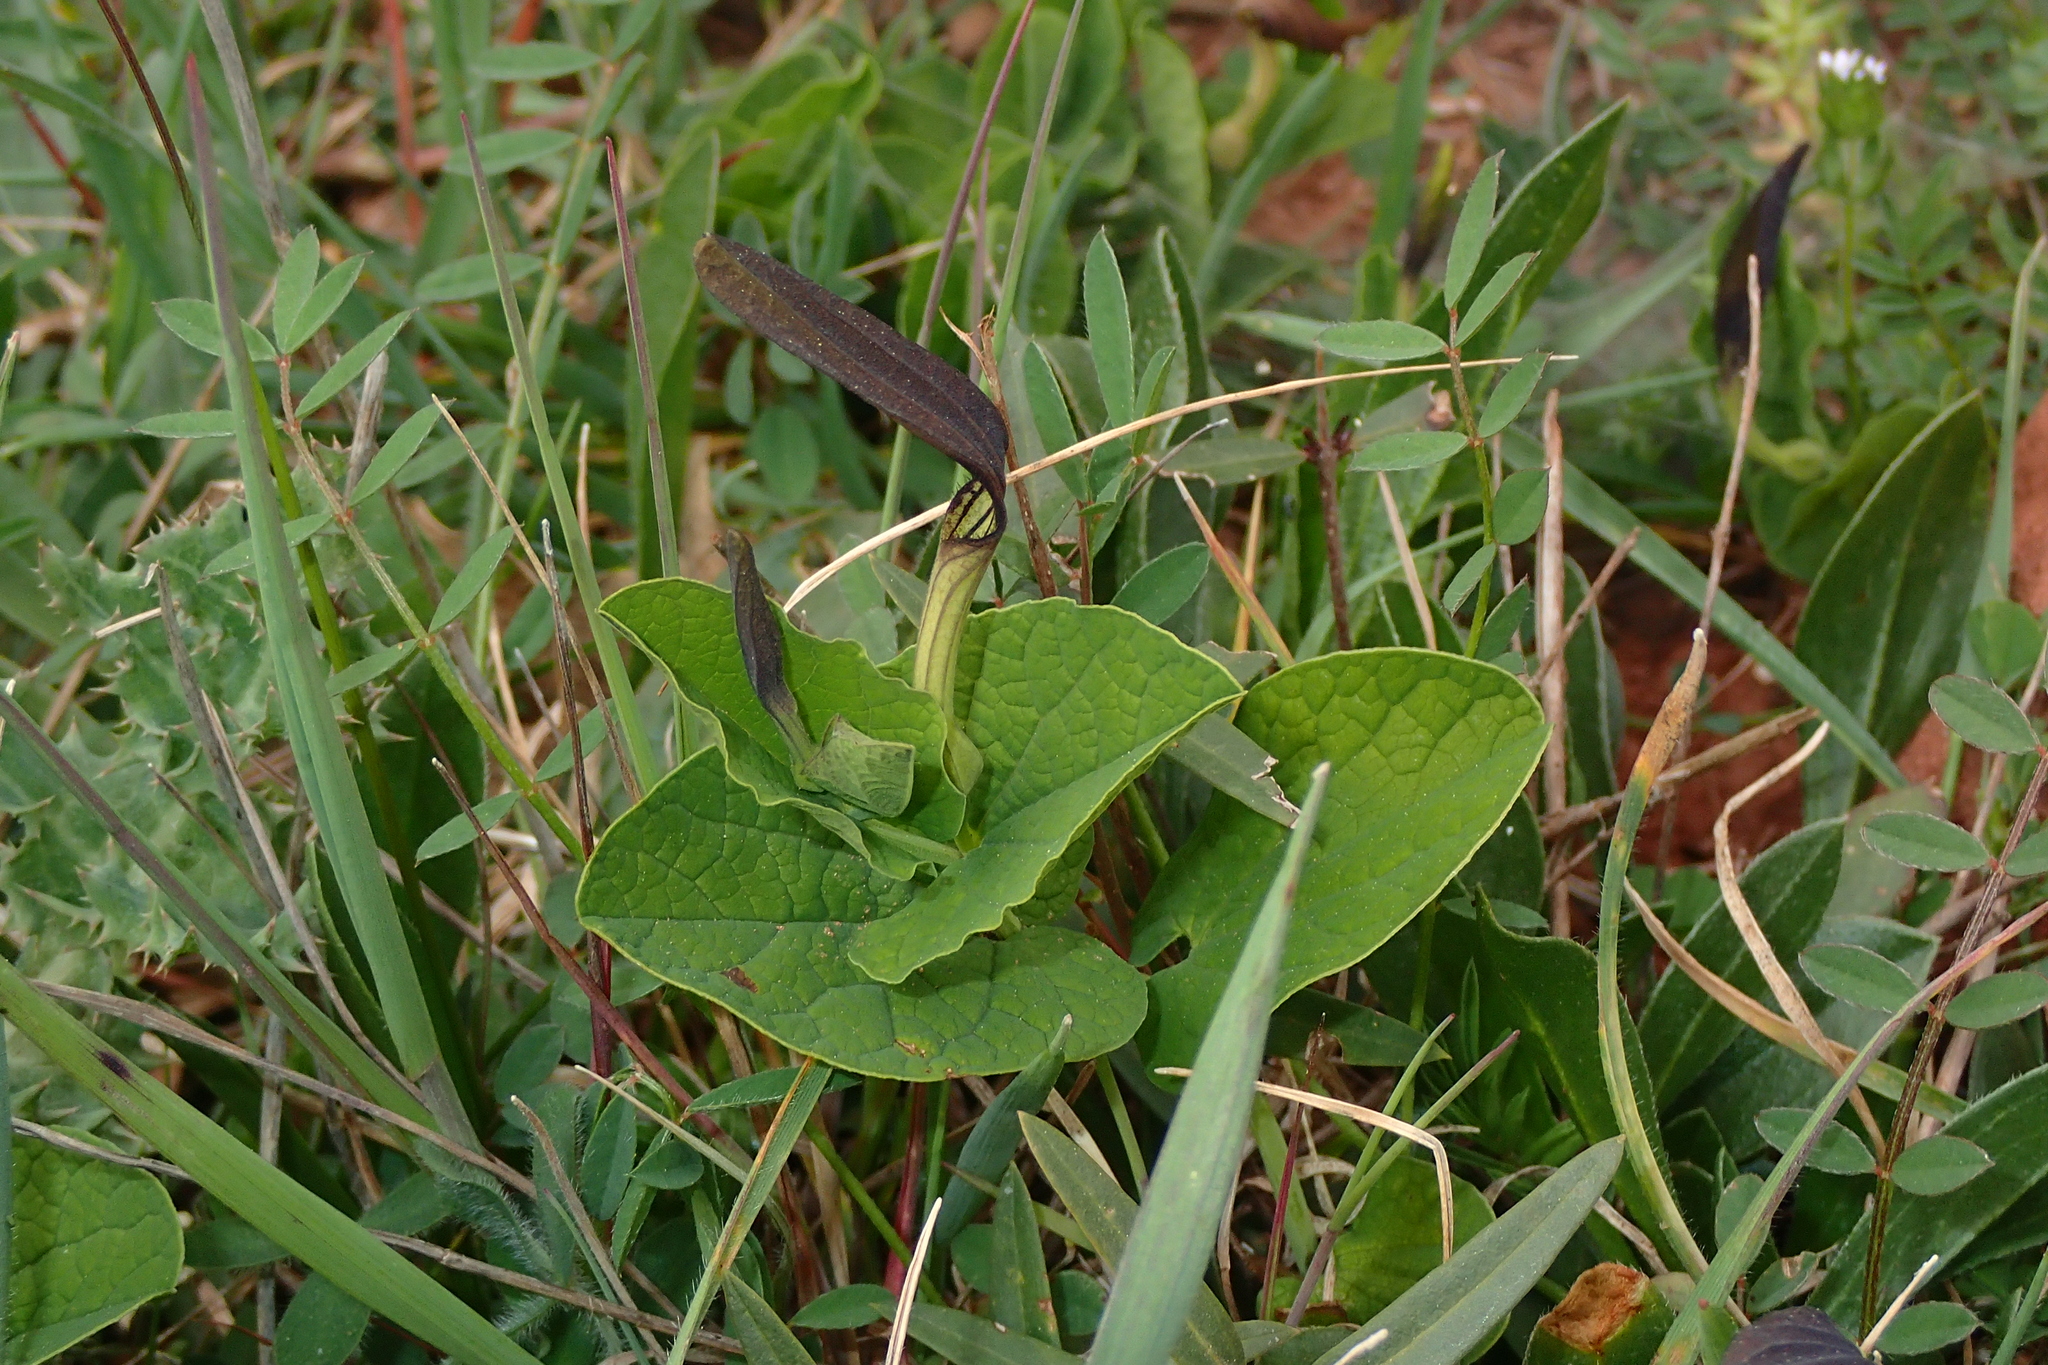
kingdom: Plantae
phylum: Tracheophyta
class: Magnoliopsida
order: Piperales
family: Aristolochiaceae
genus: Aristolochia
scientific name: Aristolochia rotunda
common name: Smearwort
